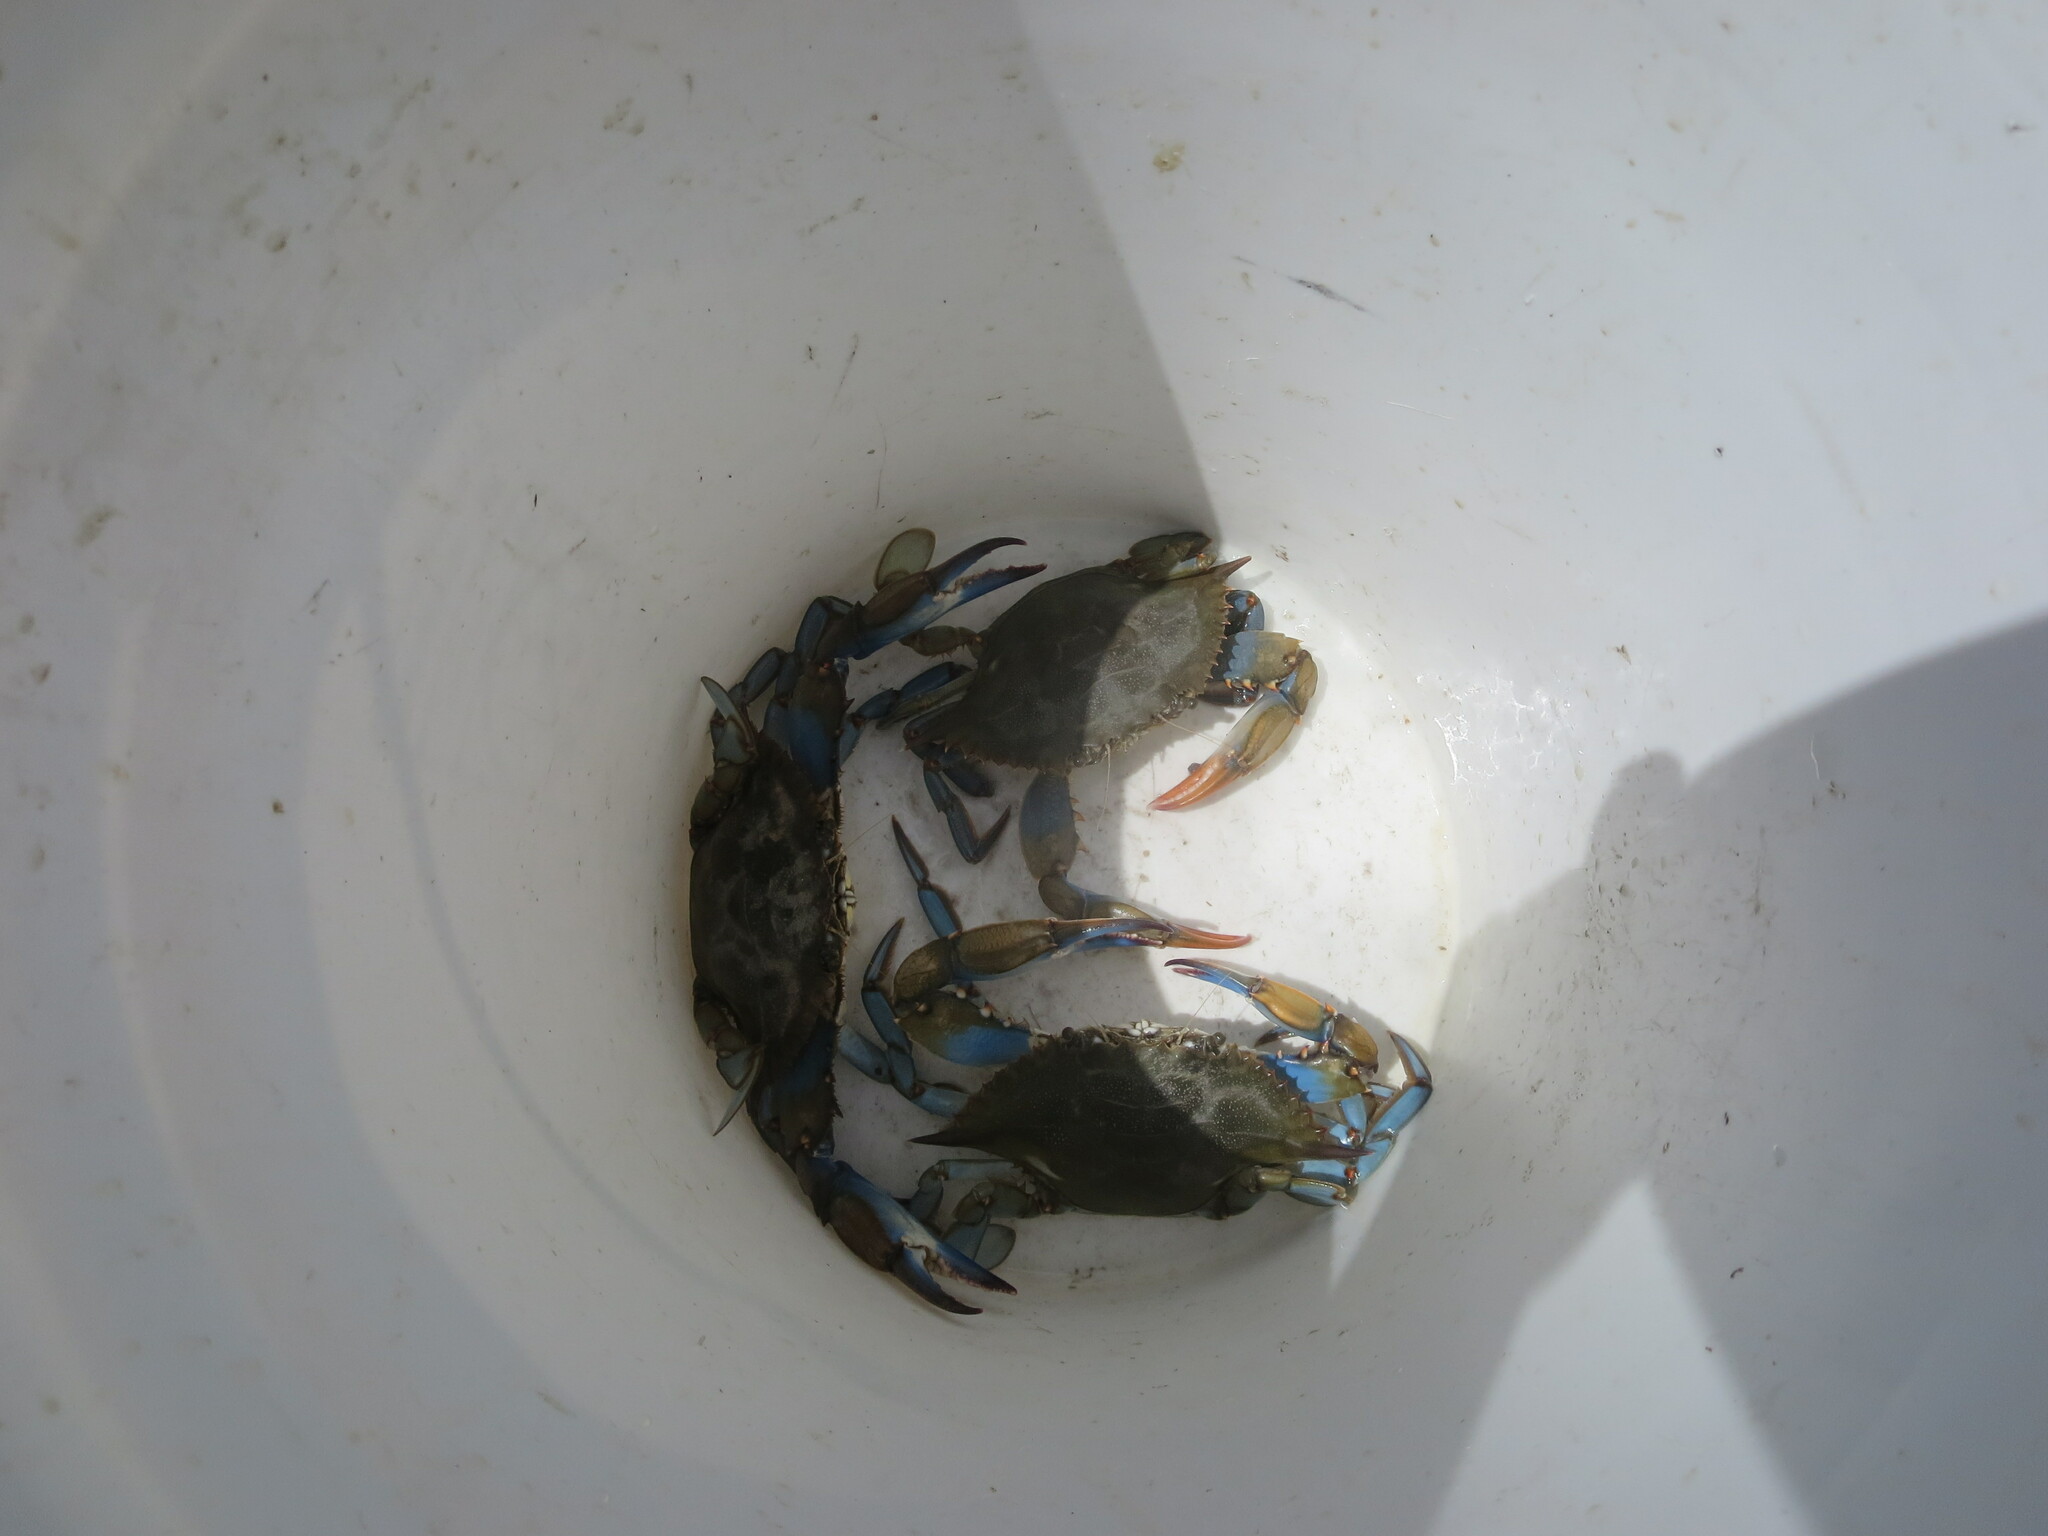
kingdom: Animalia
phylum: Arthropoda
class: Malacostraca
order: Decapoda
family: Portunidae
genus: Callinectes
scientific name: Callinectes sapidus
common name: Blue crab
